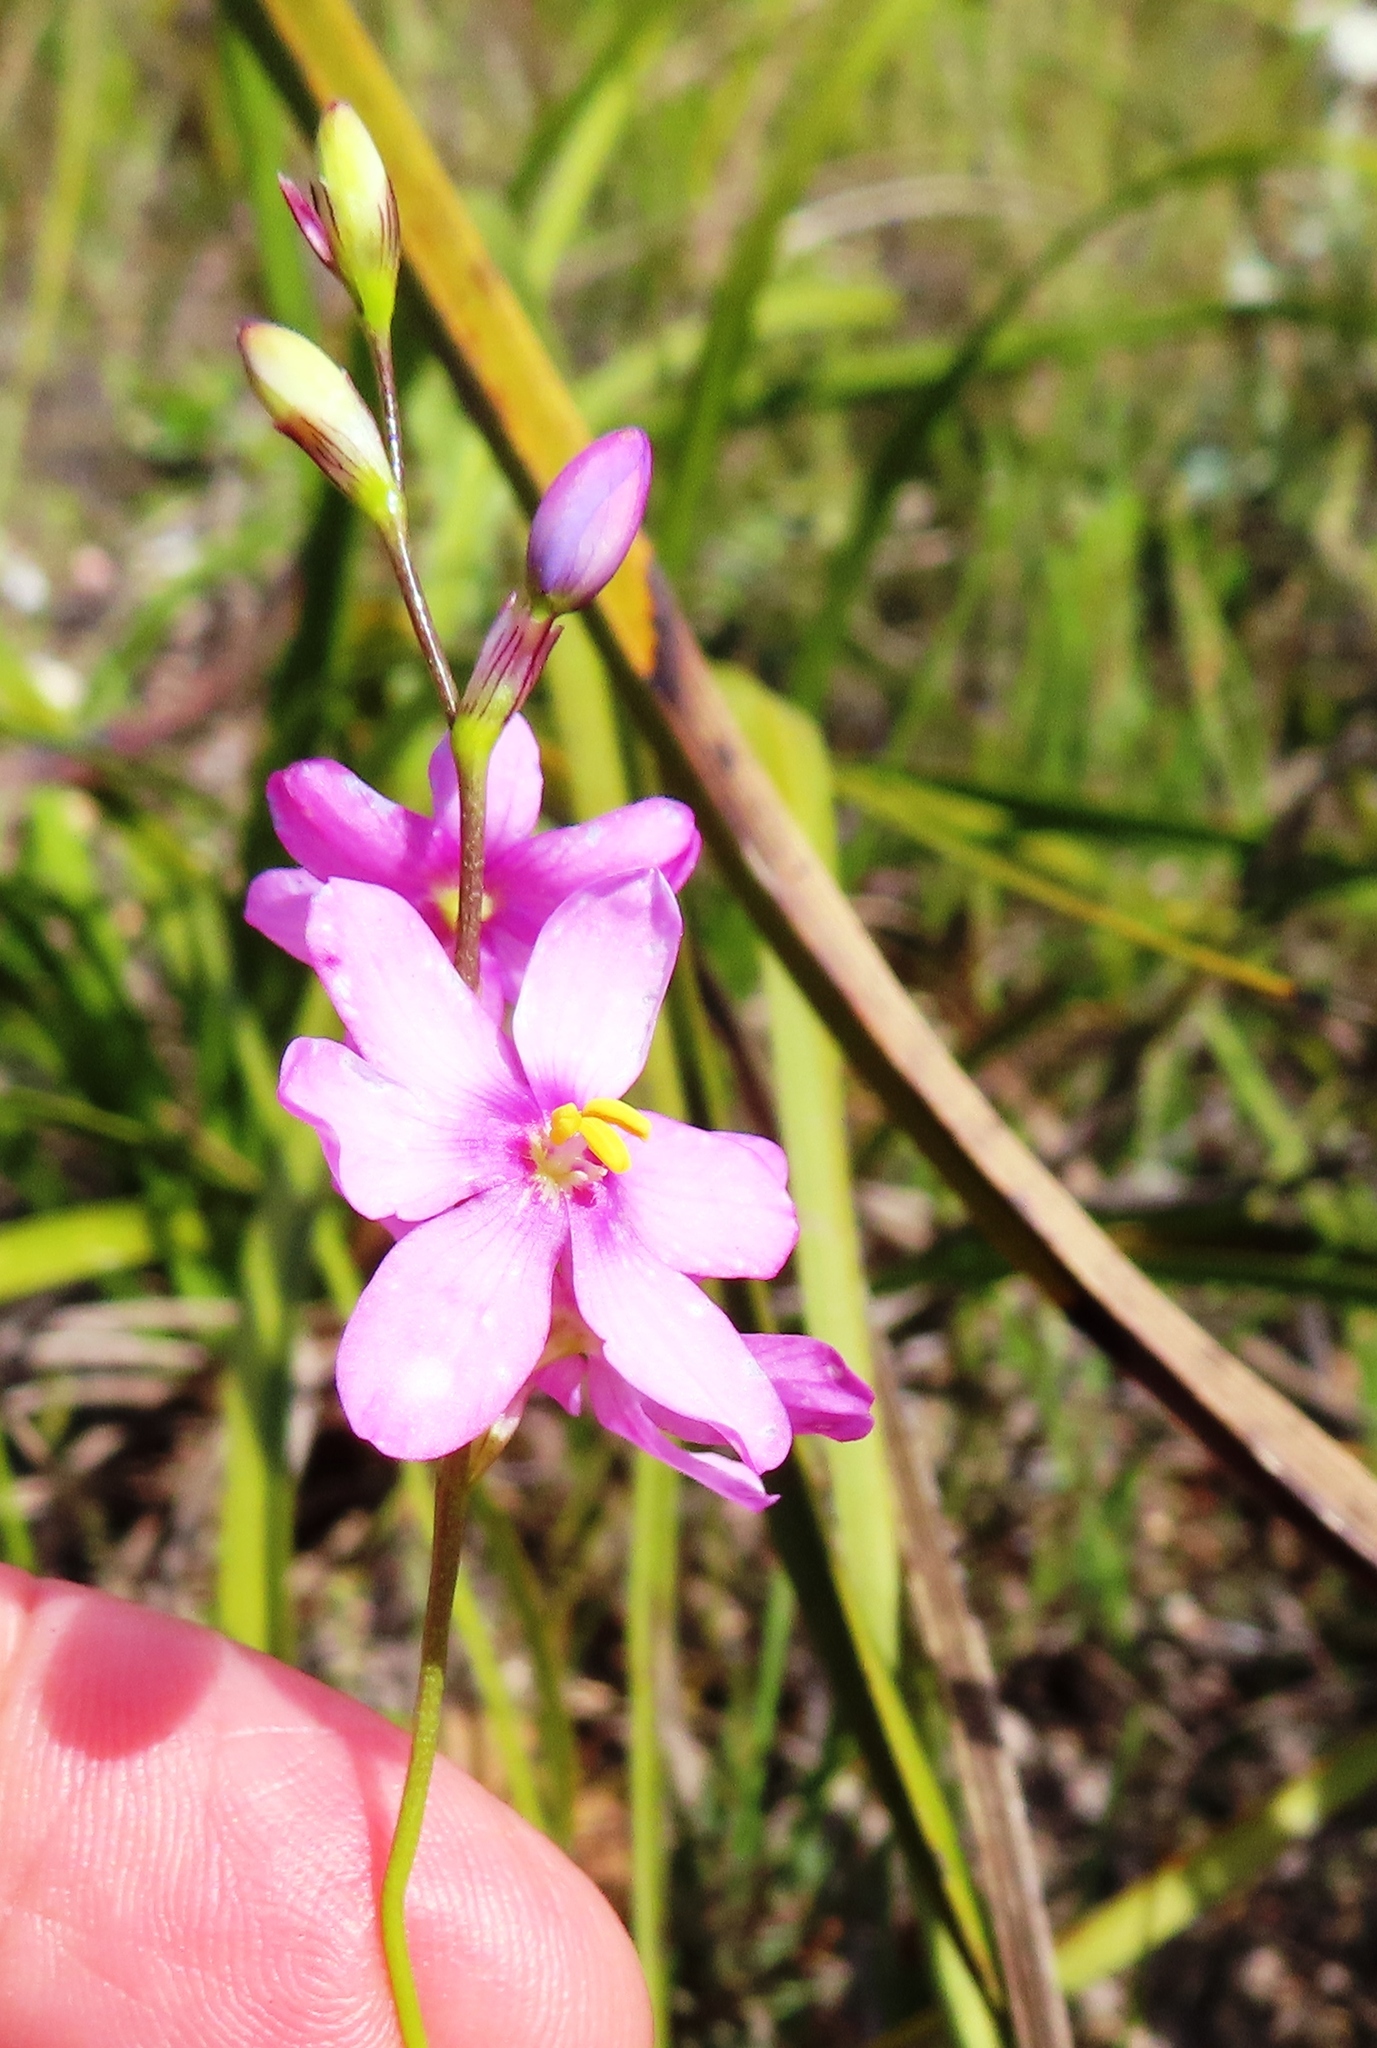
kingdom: Plantae
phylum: Tracheophyta
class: Liliopsida
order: Asparagales
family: Iridaceae
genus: Ixia
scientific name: Ixia stricta
